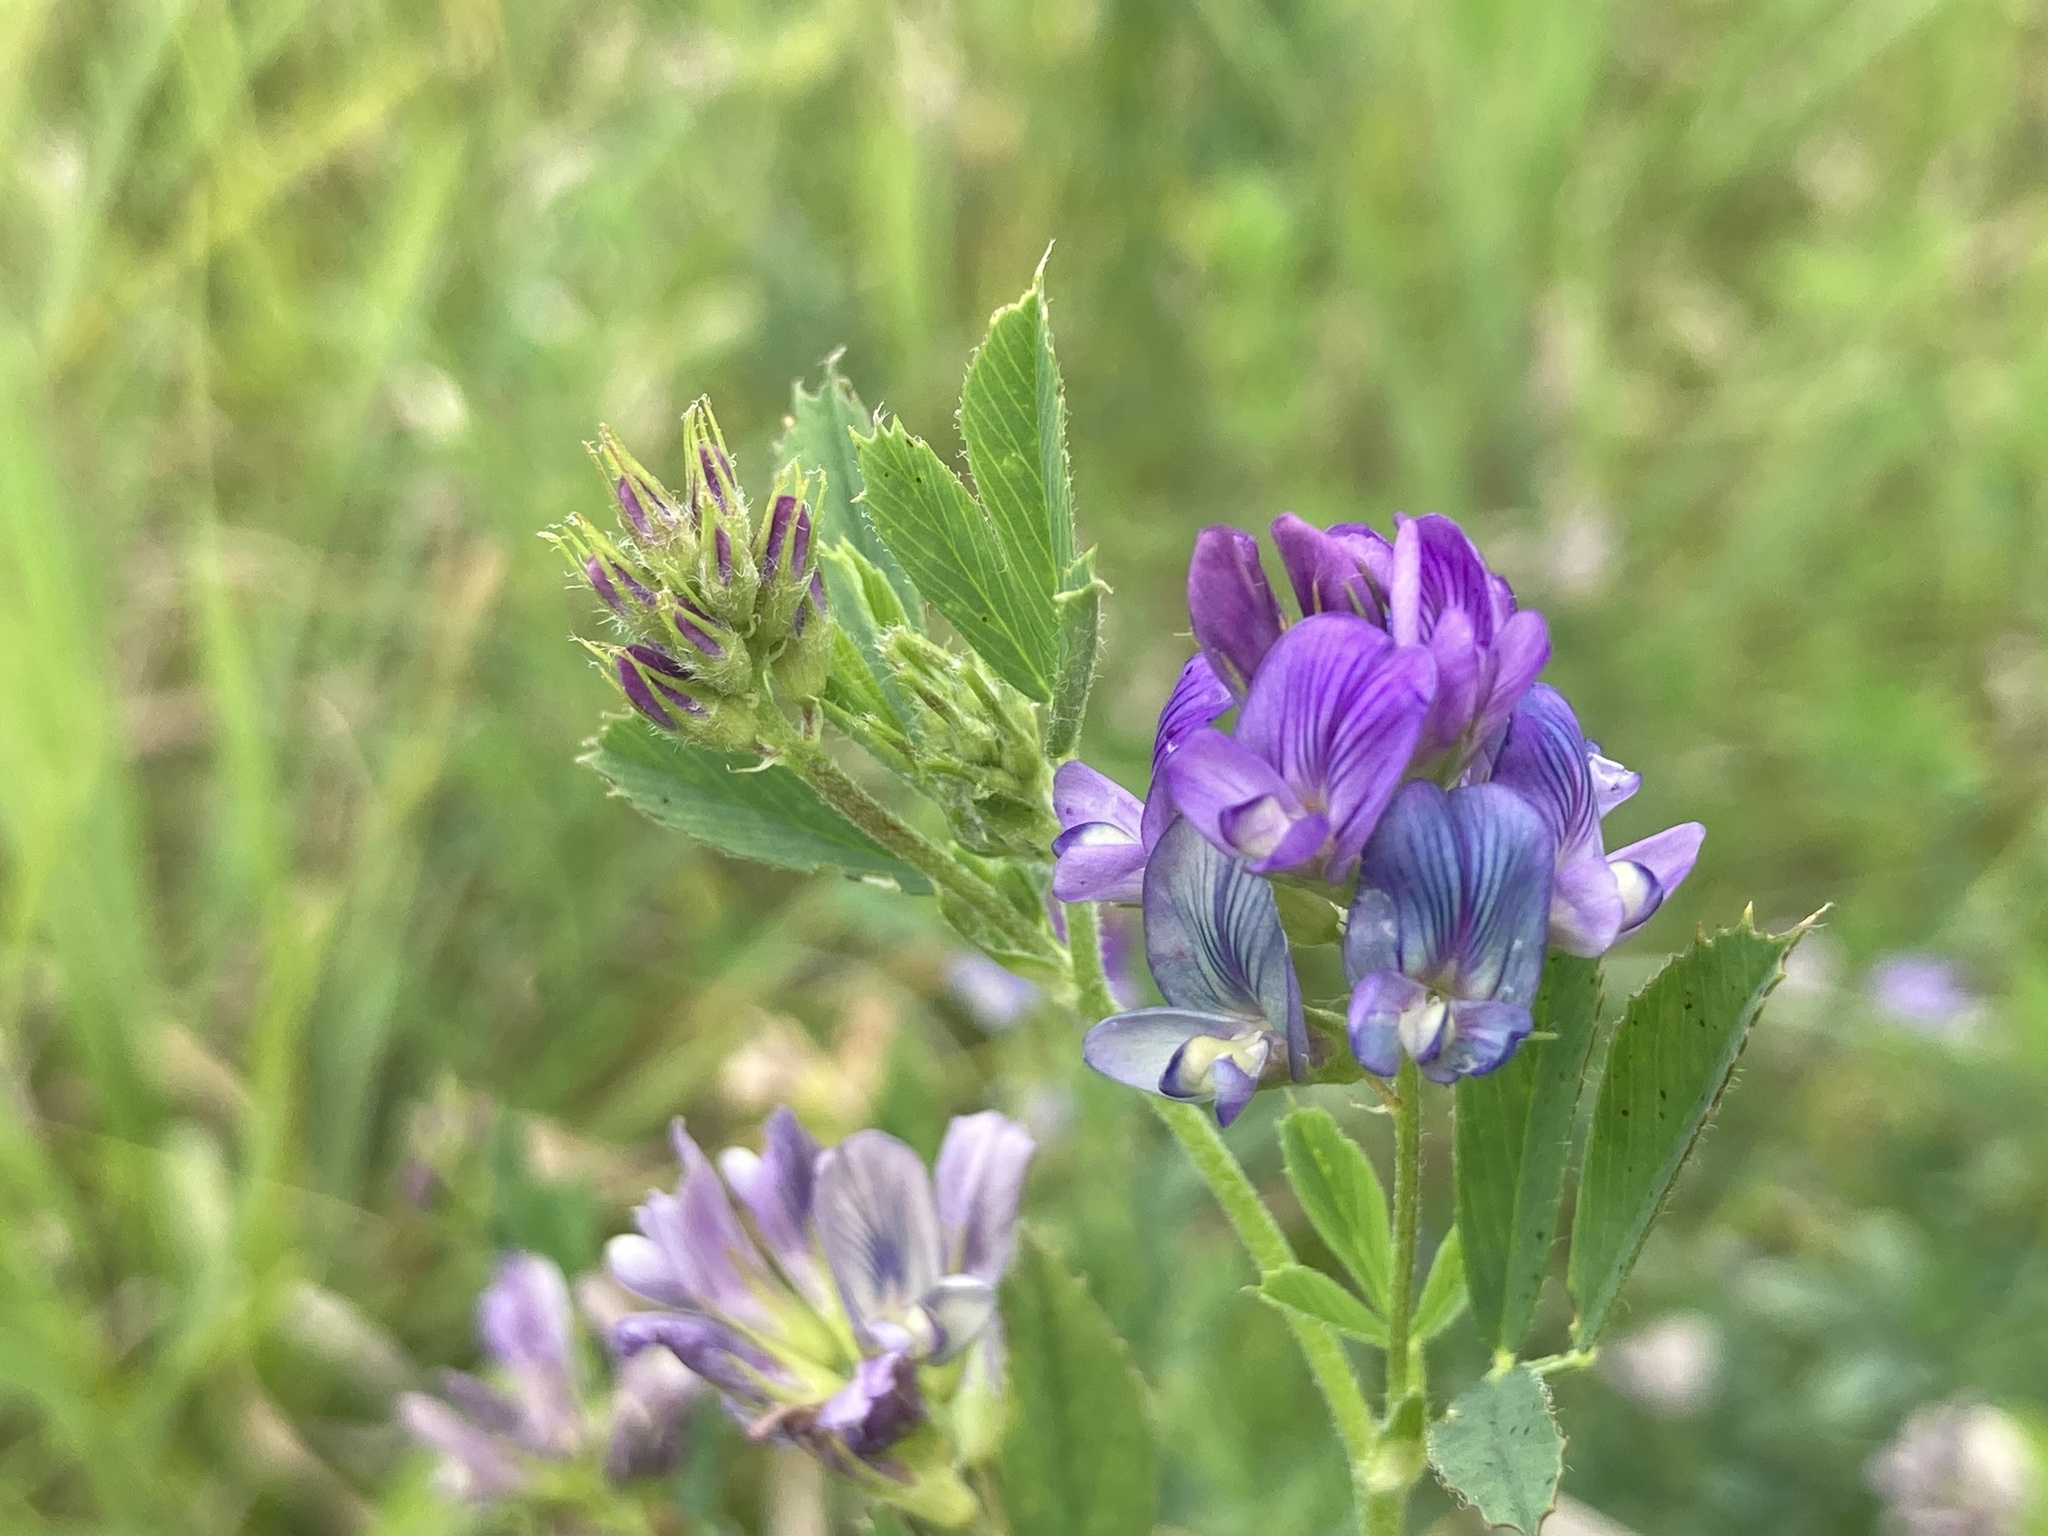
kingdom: Plantae
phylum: Tracheophyta
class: Magnoliopsida
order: Fabales
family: Fabaceae
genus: Medicago
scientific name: Medicago sativa
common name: Alfalfa
